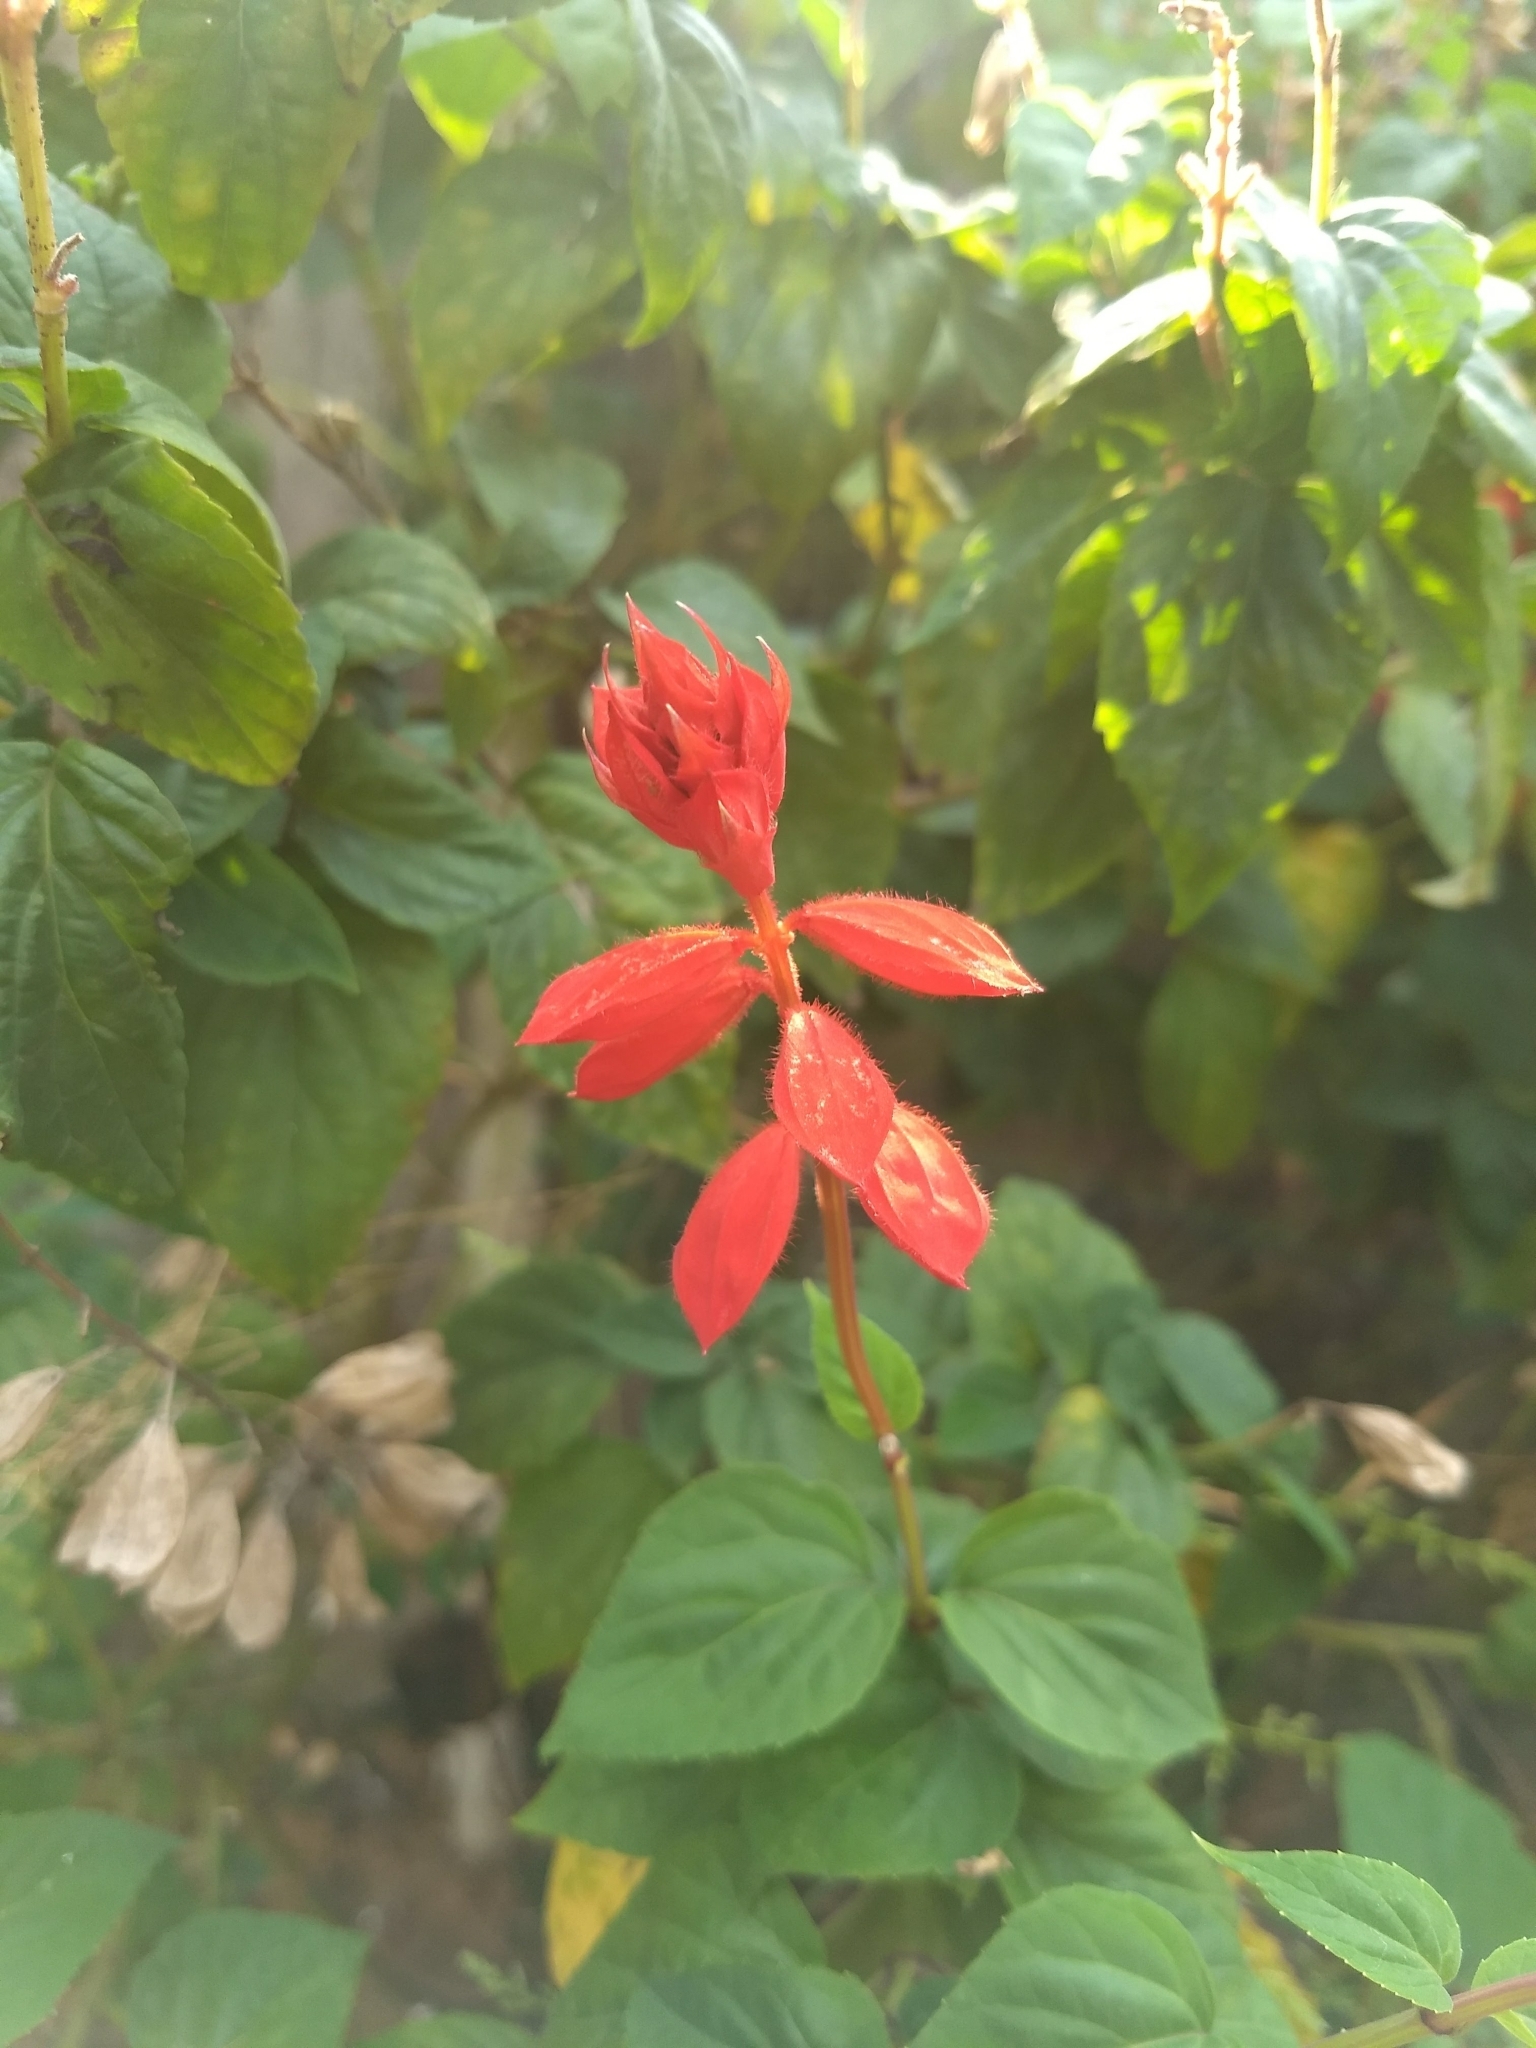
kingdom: Plantae
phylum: Tracheophyta
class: Magnoliopsida
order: Lamiales
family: Lamiaceae
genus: Salvia
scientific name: Salvia splendens
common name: Scarlet sage
